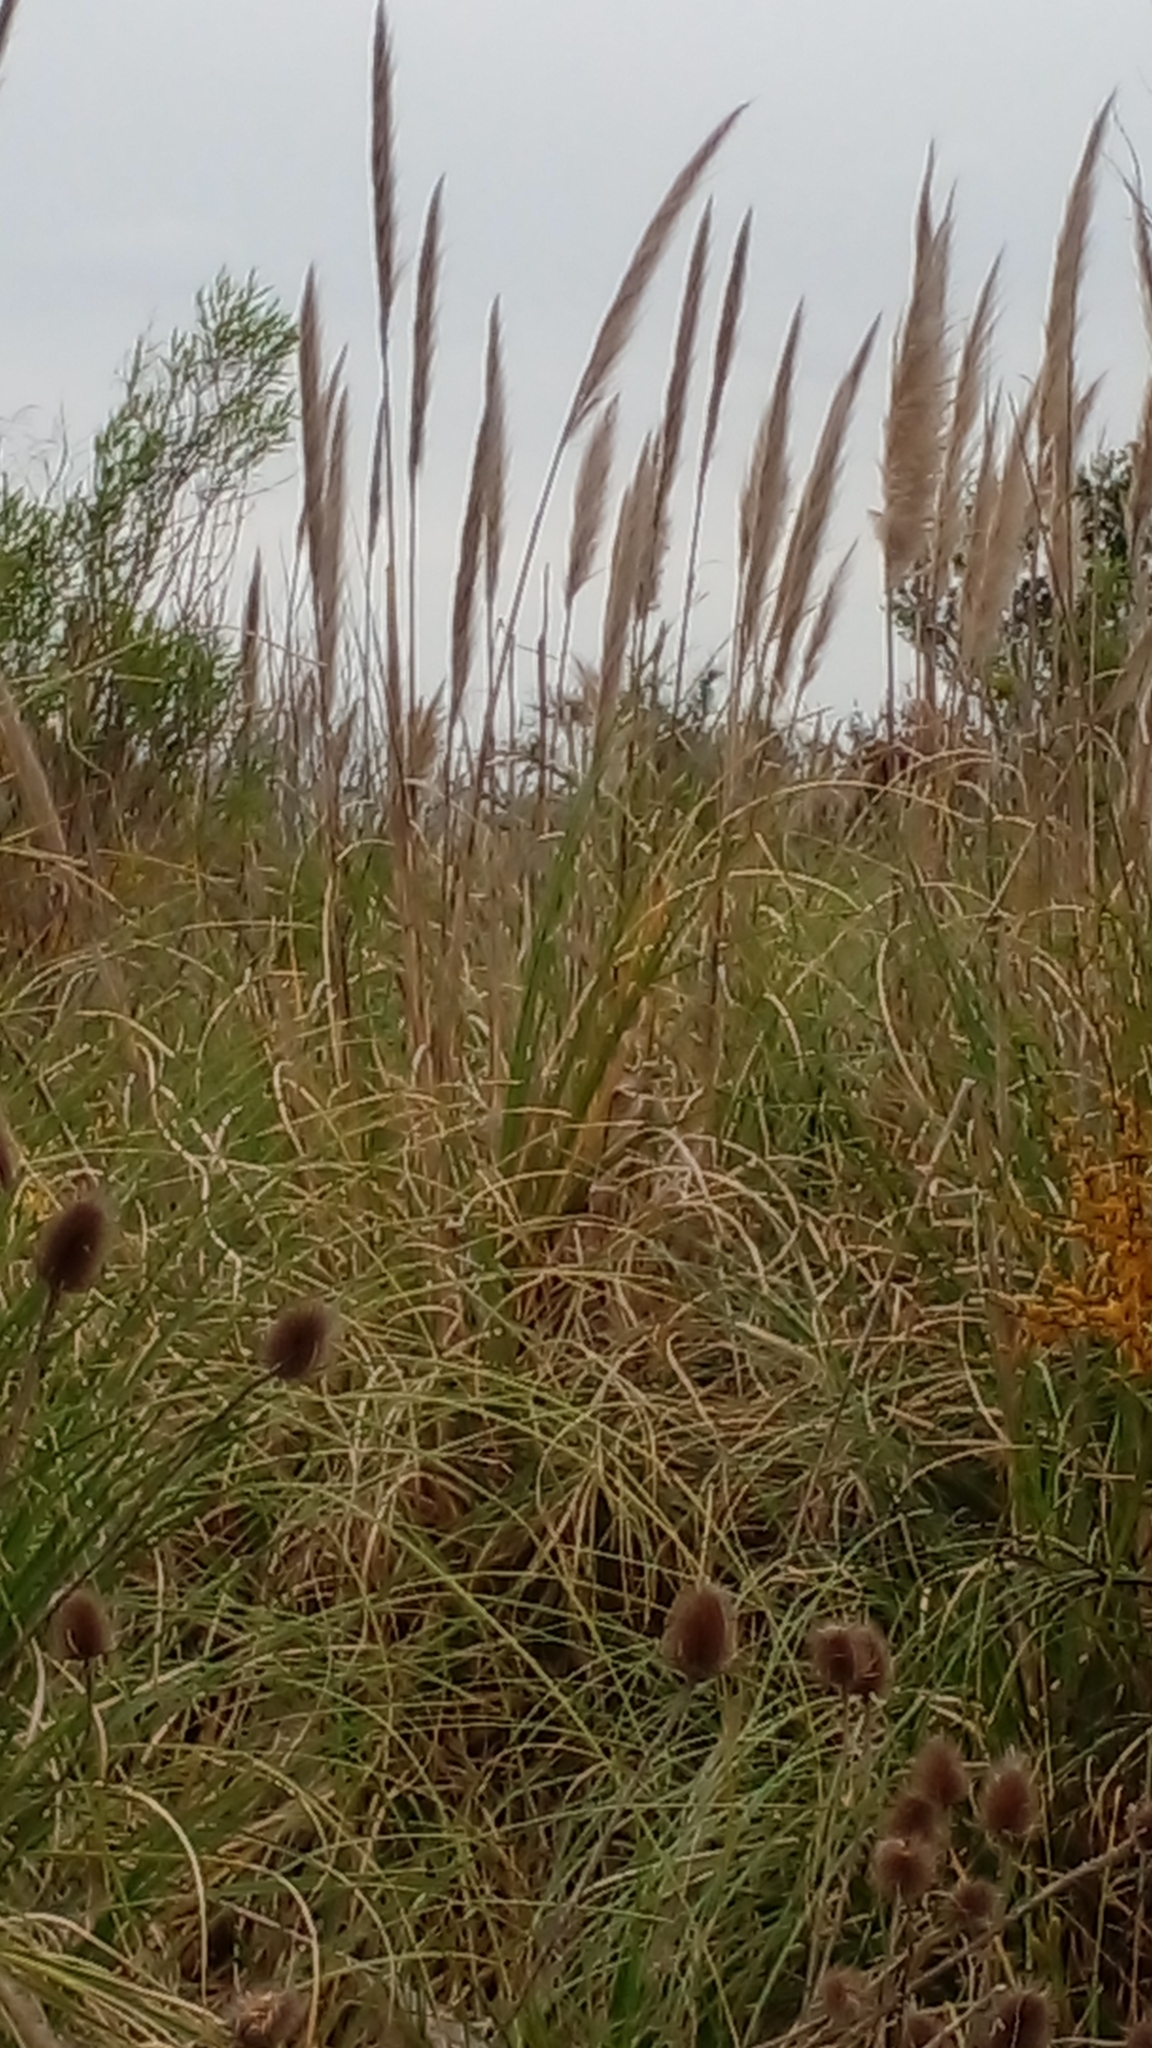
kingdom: Plantae
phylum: Tracheophyta
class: Liliopsida
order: Poales
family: Poaceae
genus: Cortaderia
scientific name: Cortaderia selloana
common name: Uruguayan pampas grass
